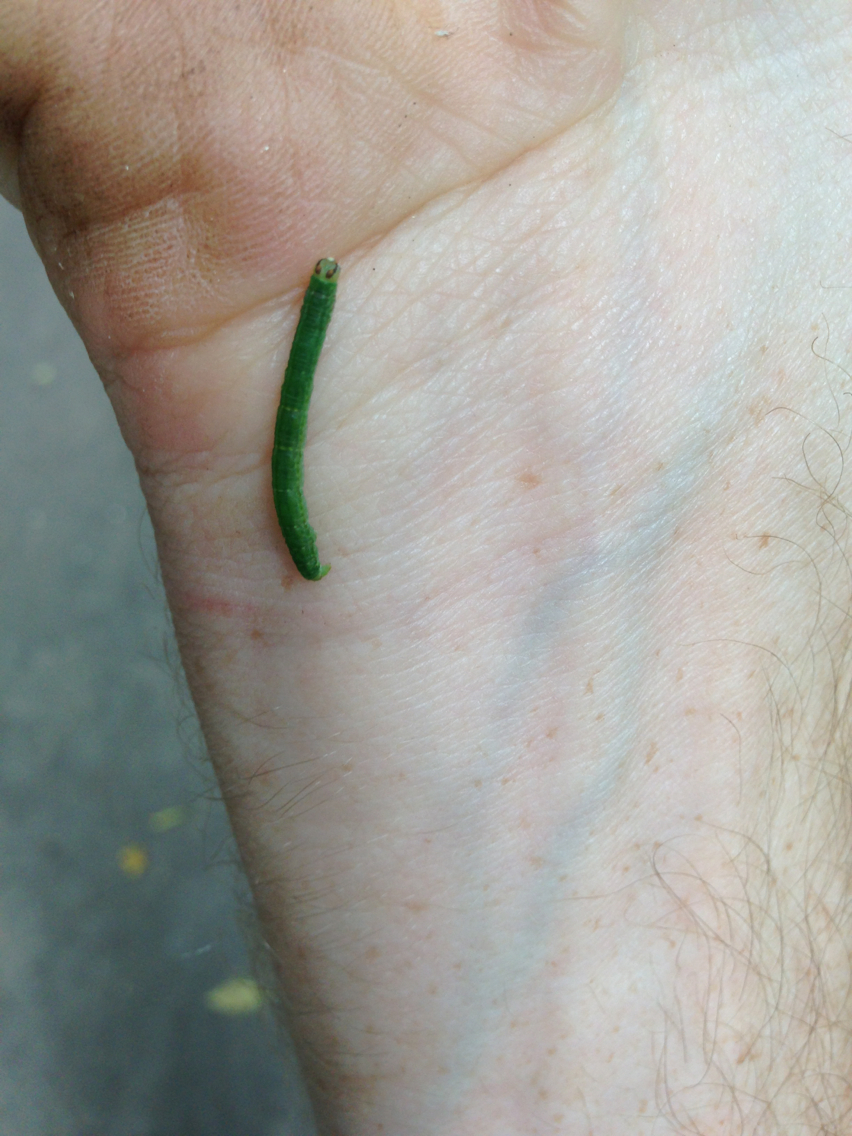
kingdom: Animalia
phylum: Arthropoda
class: Insecta
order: Lepidoptera
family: Geometridae
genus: Lomographa
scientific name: Lomographa vestaliata
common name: White spring moth
